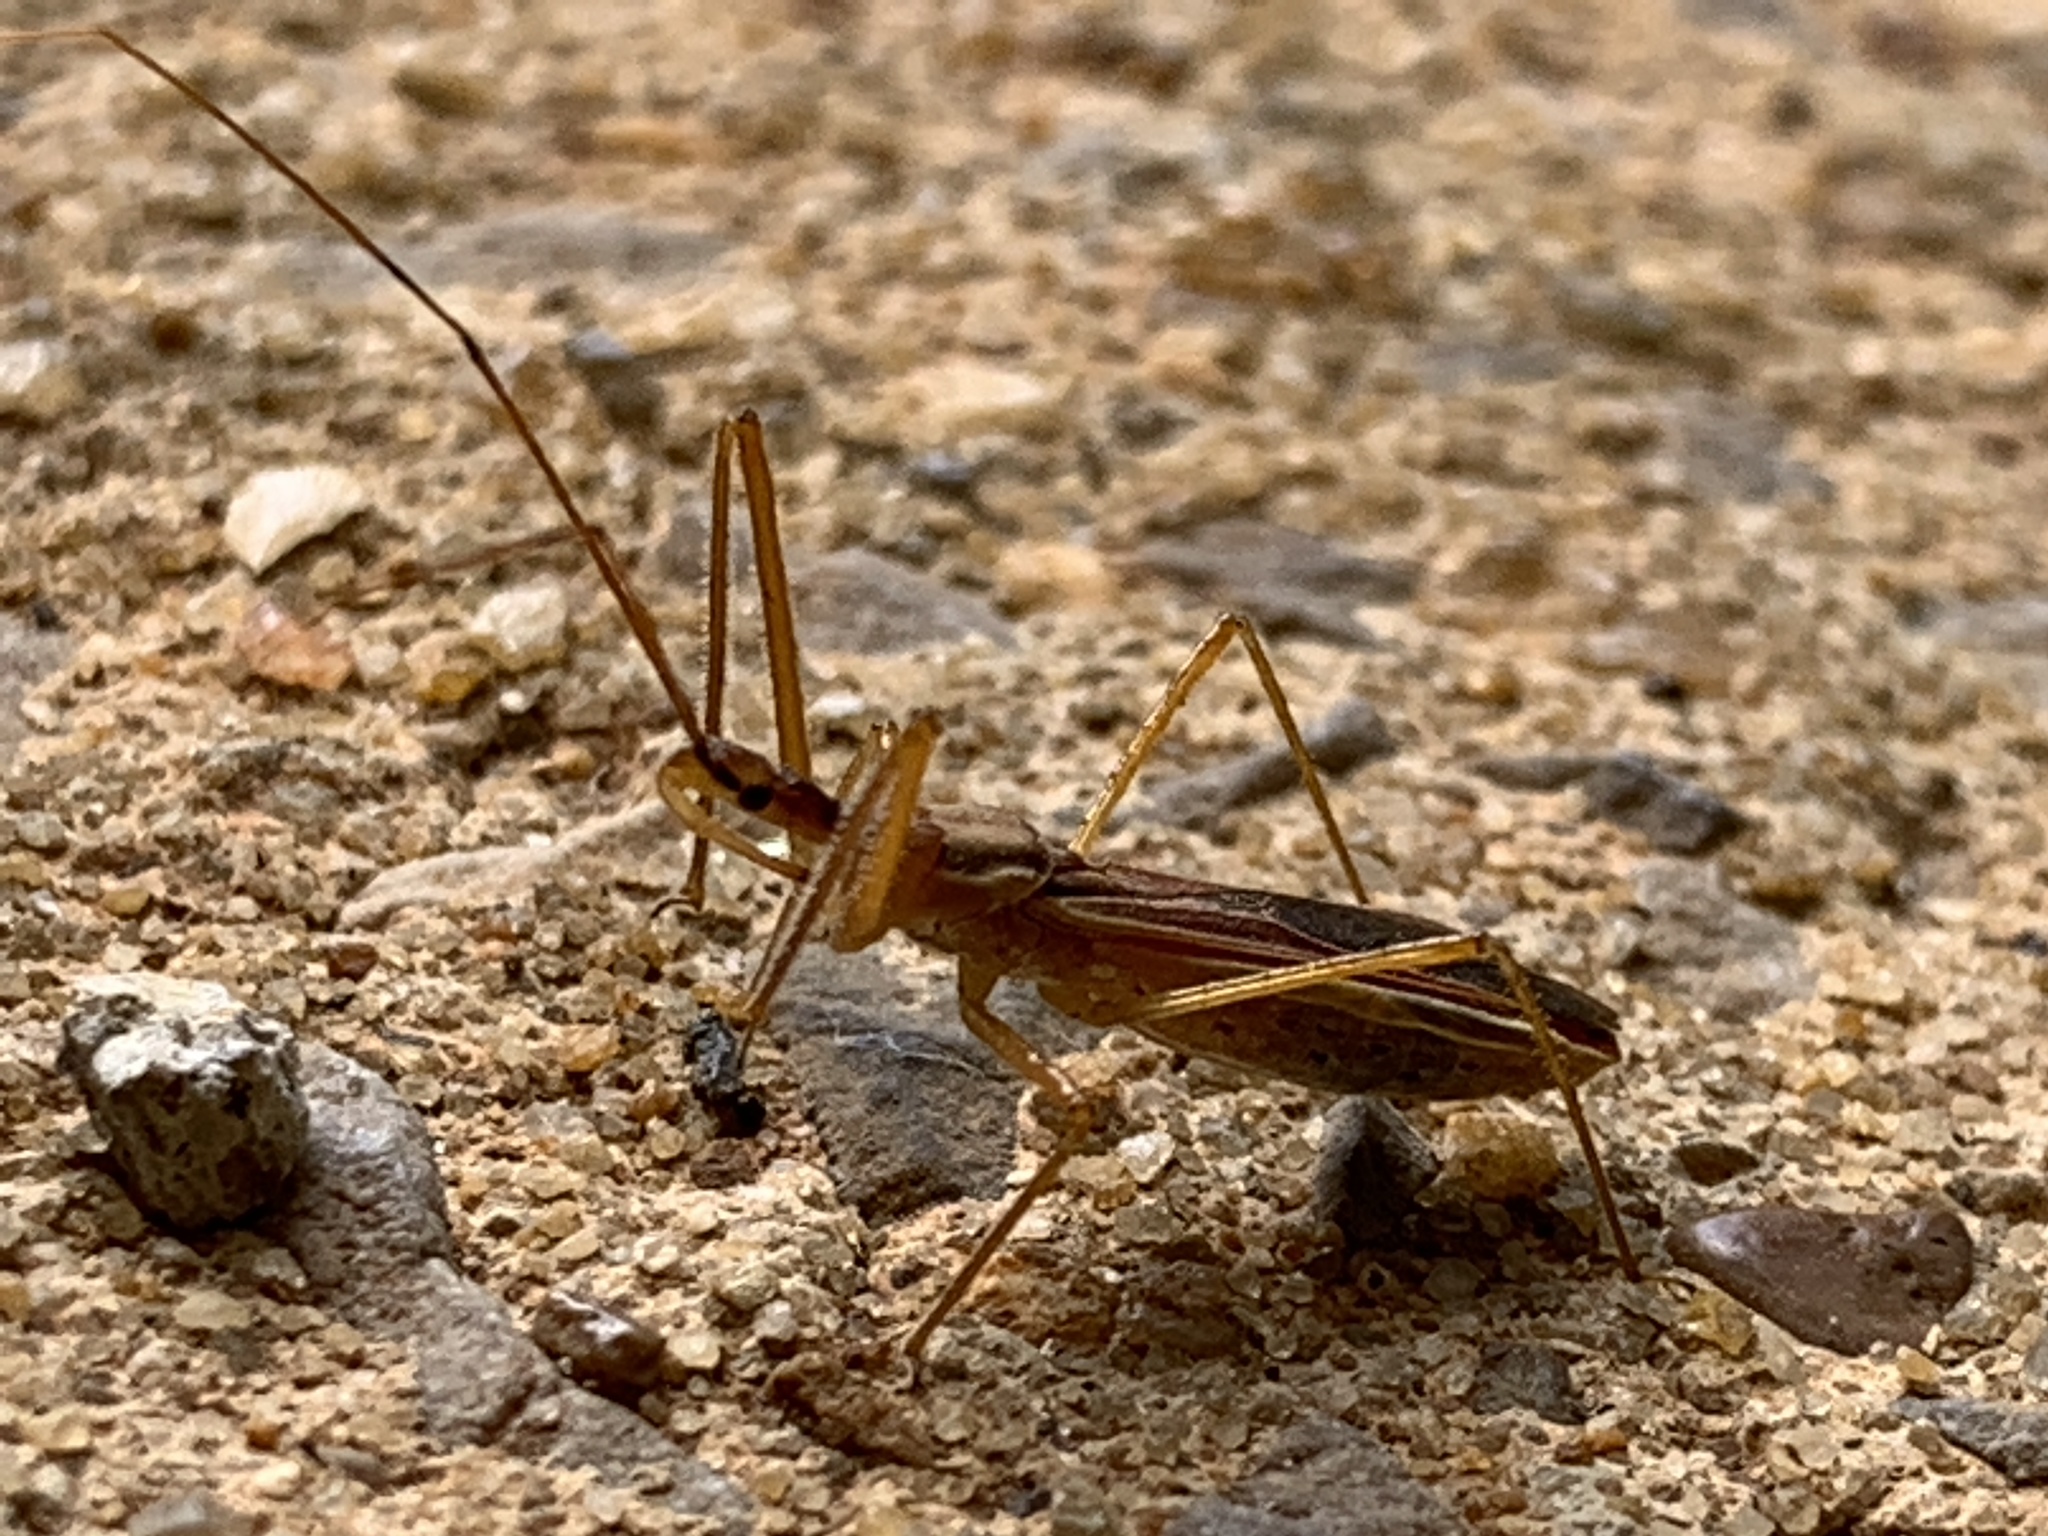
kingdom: Animalia
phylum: Arthropoda
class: Insecta
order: Hemiptera
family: Reduviidae
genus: Zelus
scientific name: Zelus cervicalis
